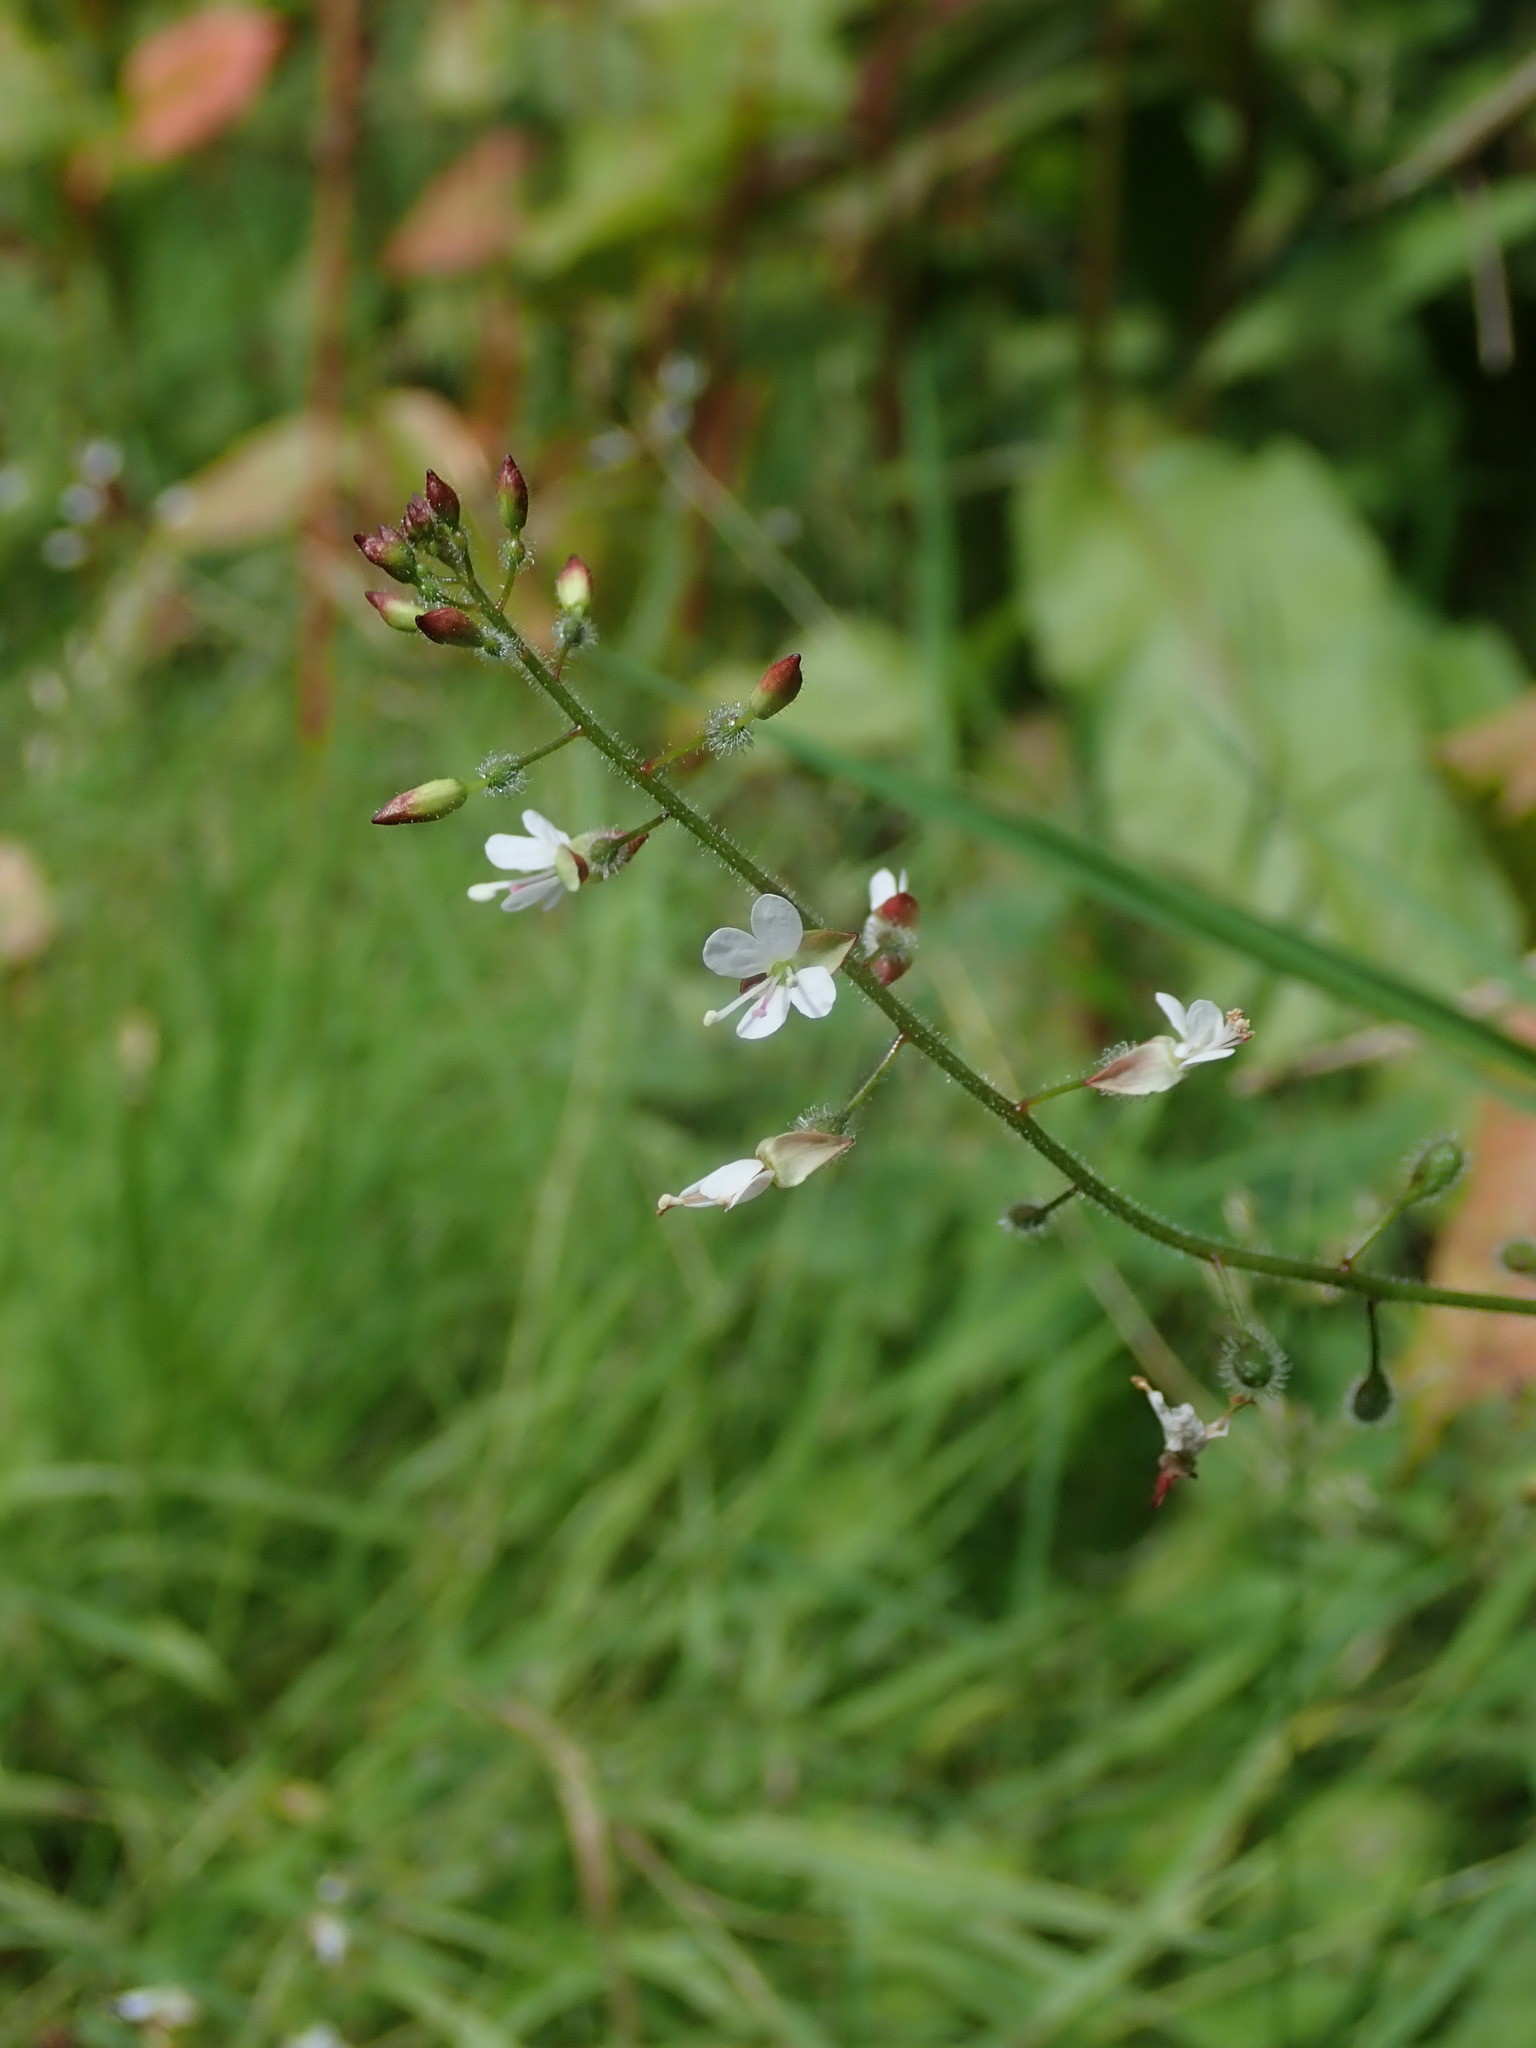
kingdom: Plantae
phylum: Tracheophyta
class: Magnoliopsida
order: Myrtales
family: Onagraceae
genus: Circaea
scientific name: Circaea lutetiana
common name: Enchanter's-nightshade
